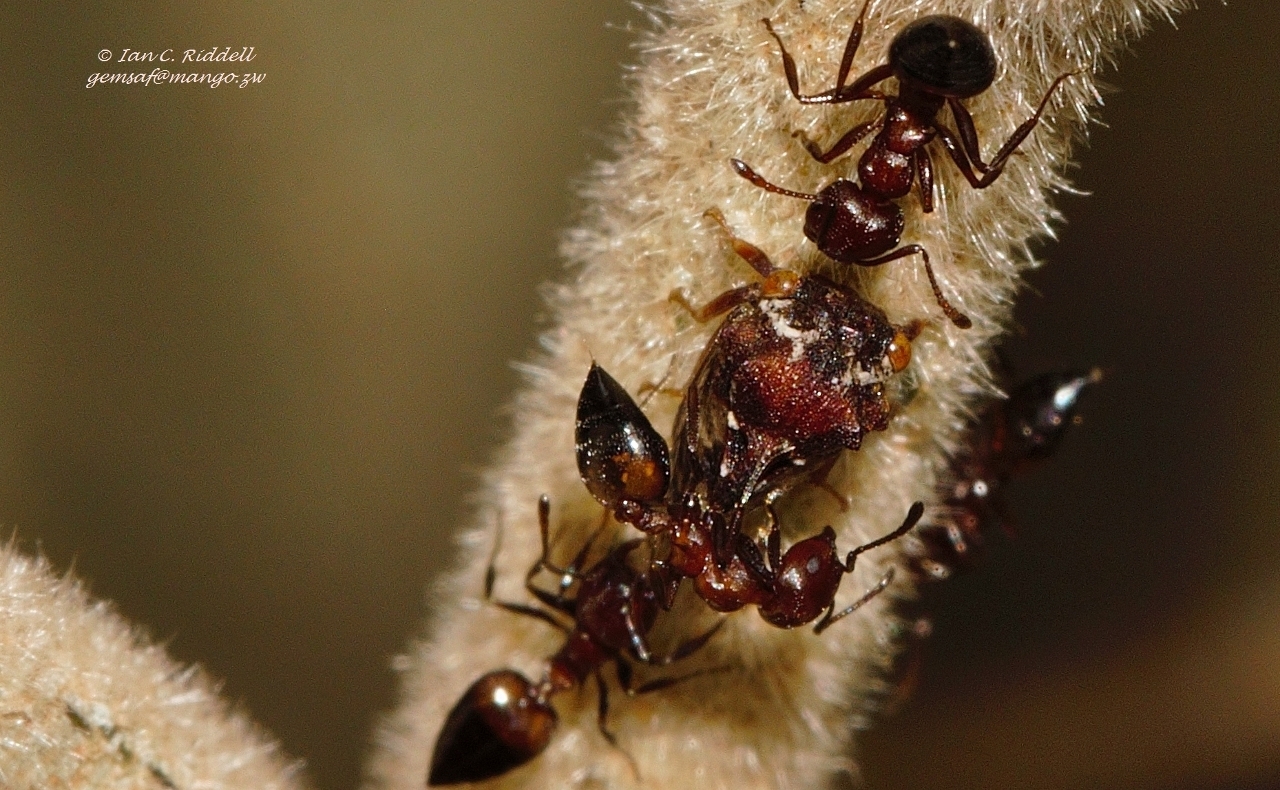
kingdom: Animalia
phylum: Arthropoda
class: Insecta
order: Hymenoptera
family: Formicidae
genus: Crematogaster
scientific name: Crematogaster castanea
